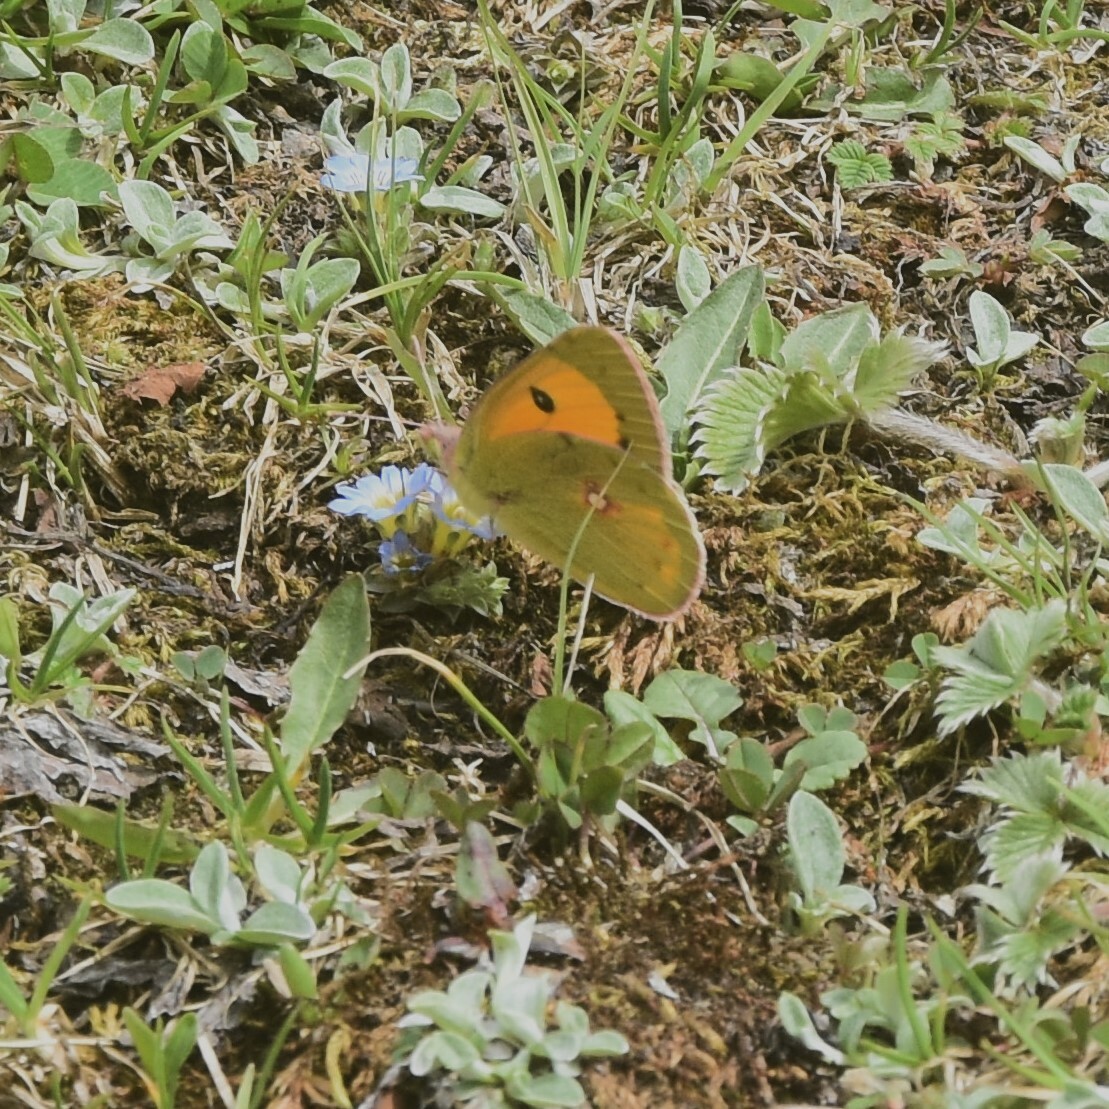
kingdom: Animalia
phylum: Arthropoda
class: Insecta
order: Lepidoptera
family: Pieridae
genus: Colias
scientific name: Colias fieldii
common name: Dark clouded yellow
